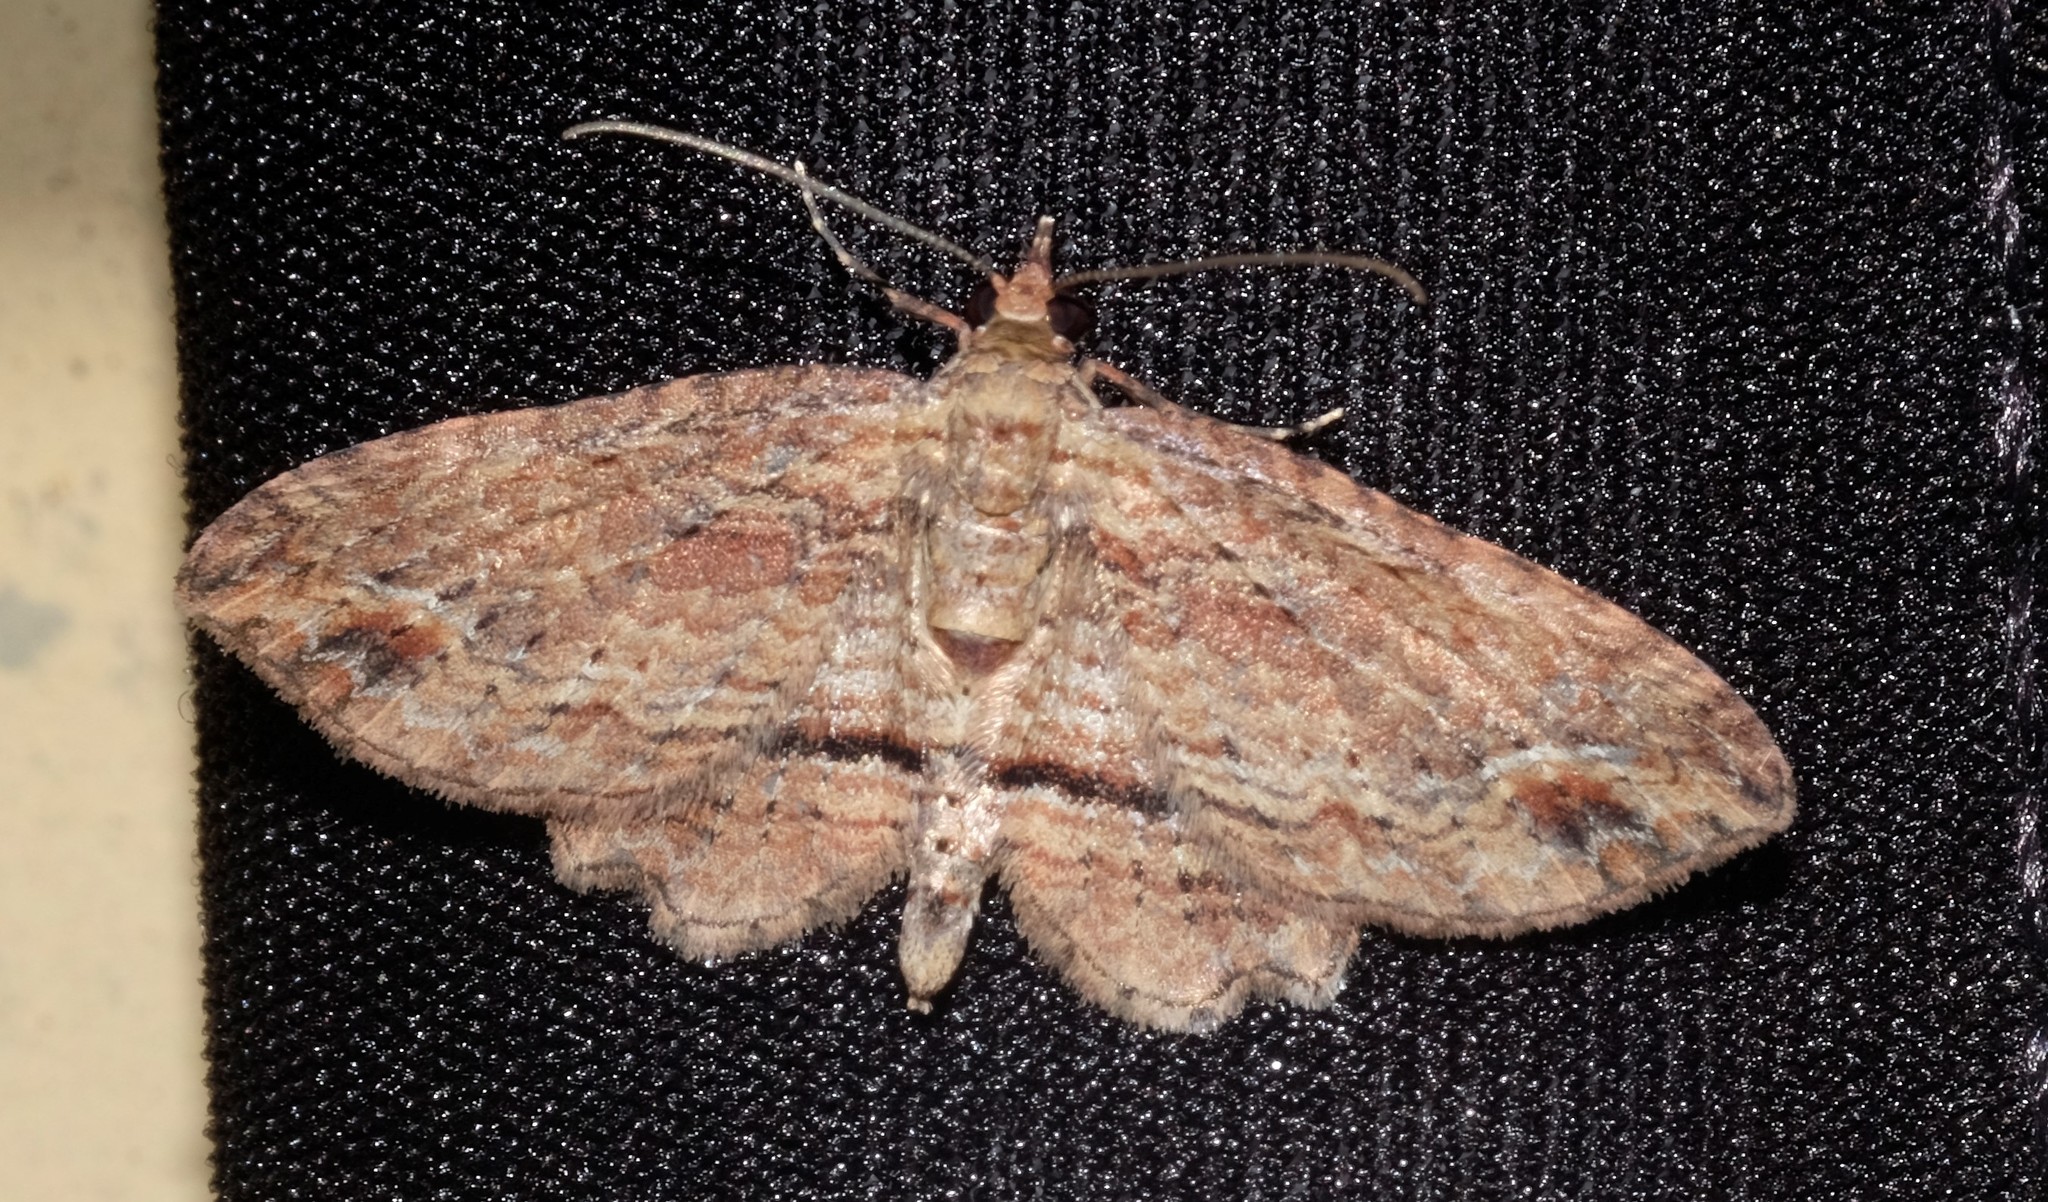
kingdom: Animalia
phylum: Arthropoda
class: Insecta
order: Lepidoptera
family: Geometridae
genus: Chloroclystis
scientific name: Chloroclystis filata
